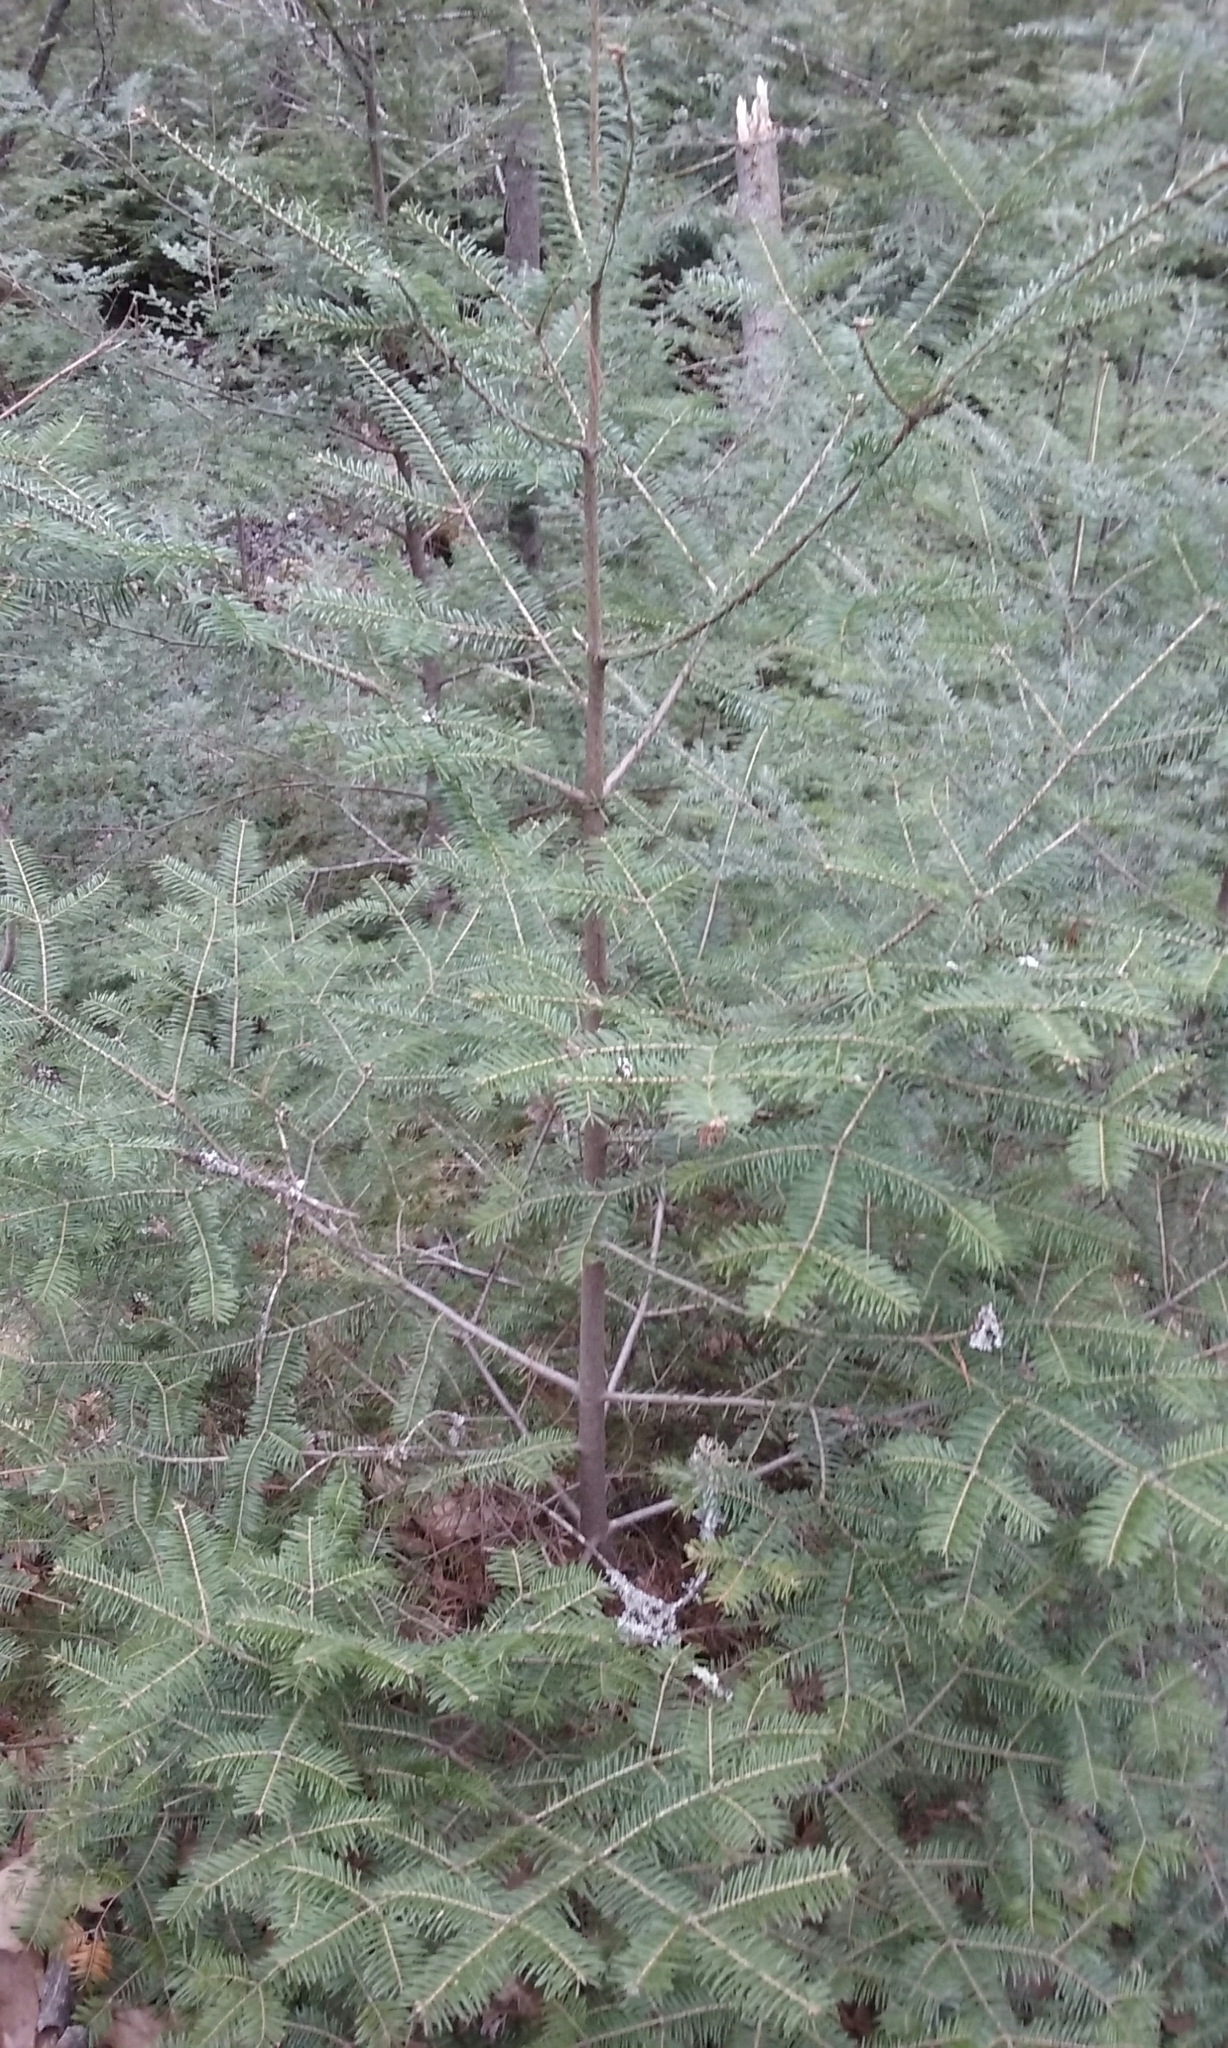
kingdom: Plantae
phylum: Tracheophyta
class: Pinopsida
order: Pinales
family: Pinaceae
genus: Abies
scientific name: Abies balsamea
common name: Balsam fir
